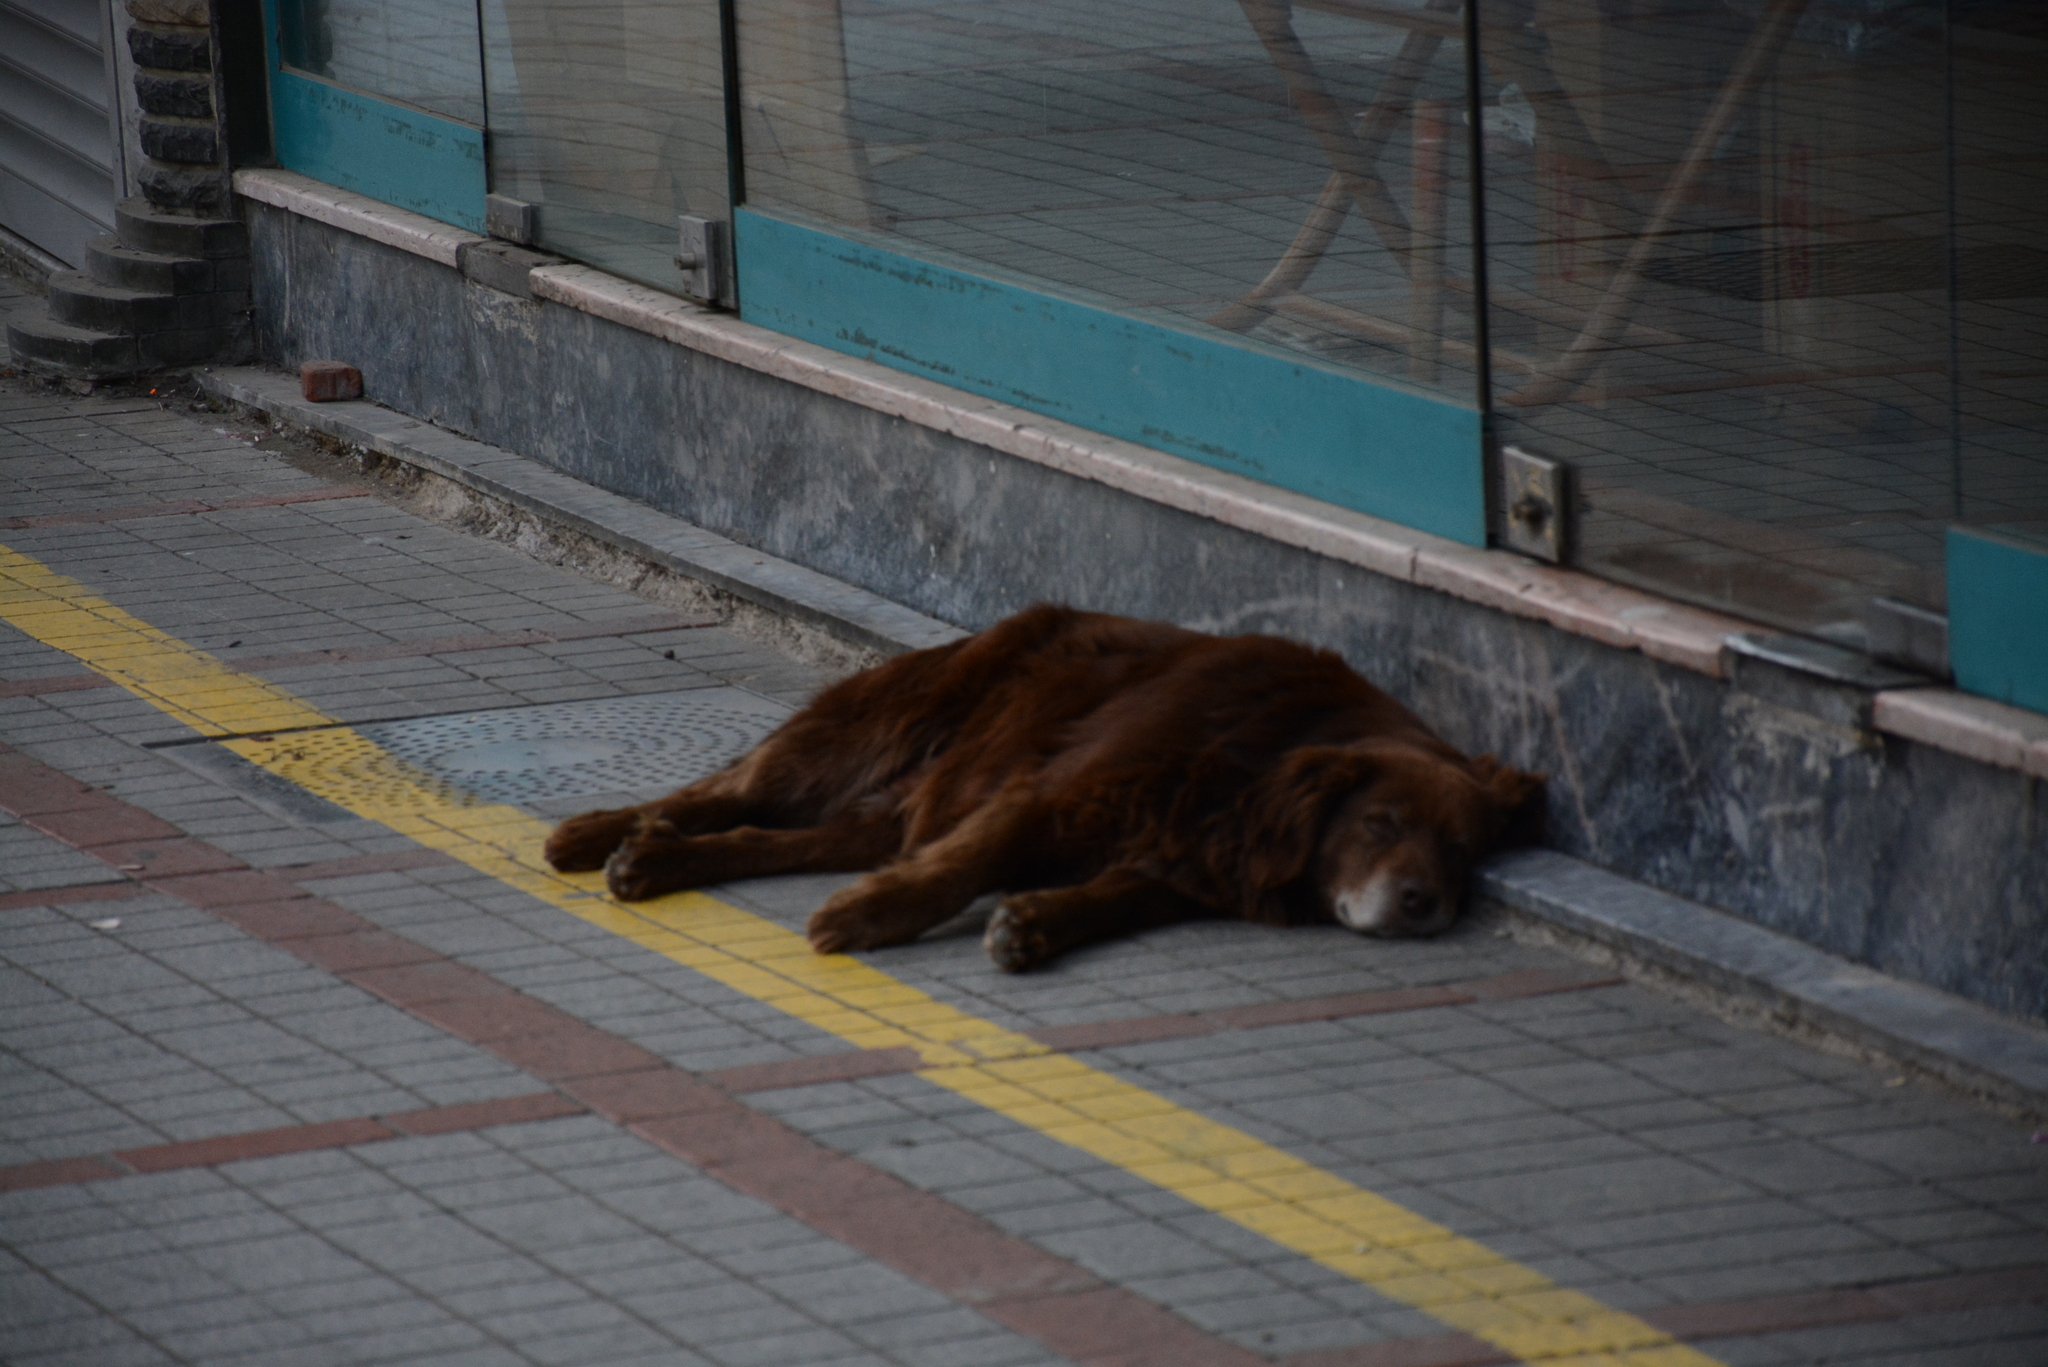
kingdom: Animalia
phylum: Chordata
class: Mammalia
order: Carnivora
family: Canidae
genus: Canis
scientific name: Canis lupus
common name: Gray wolf
